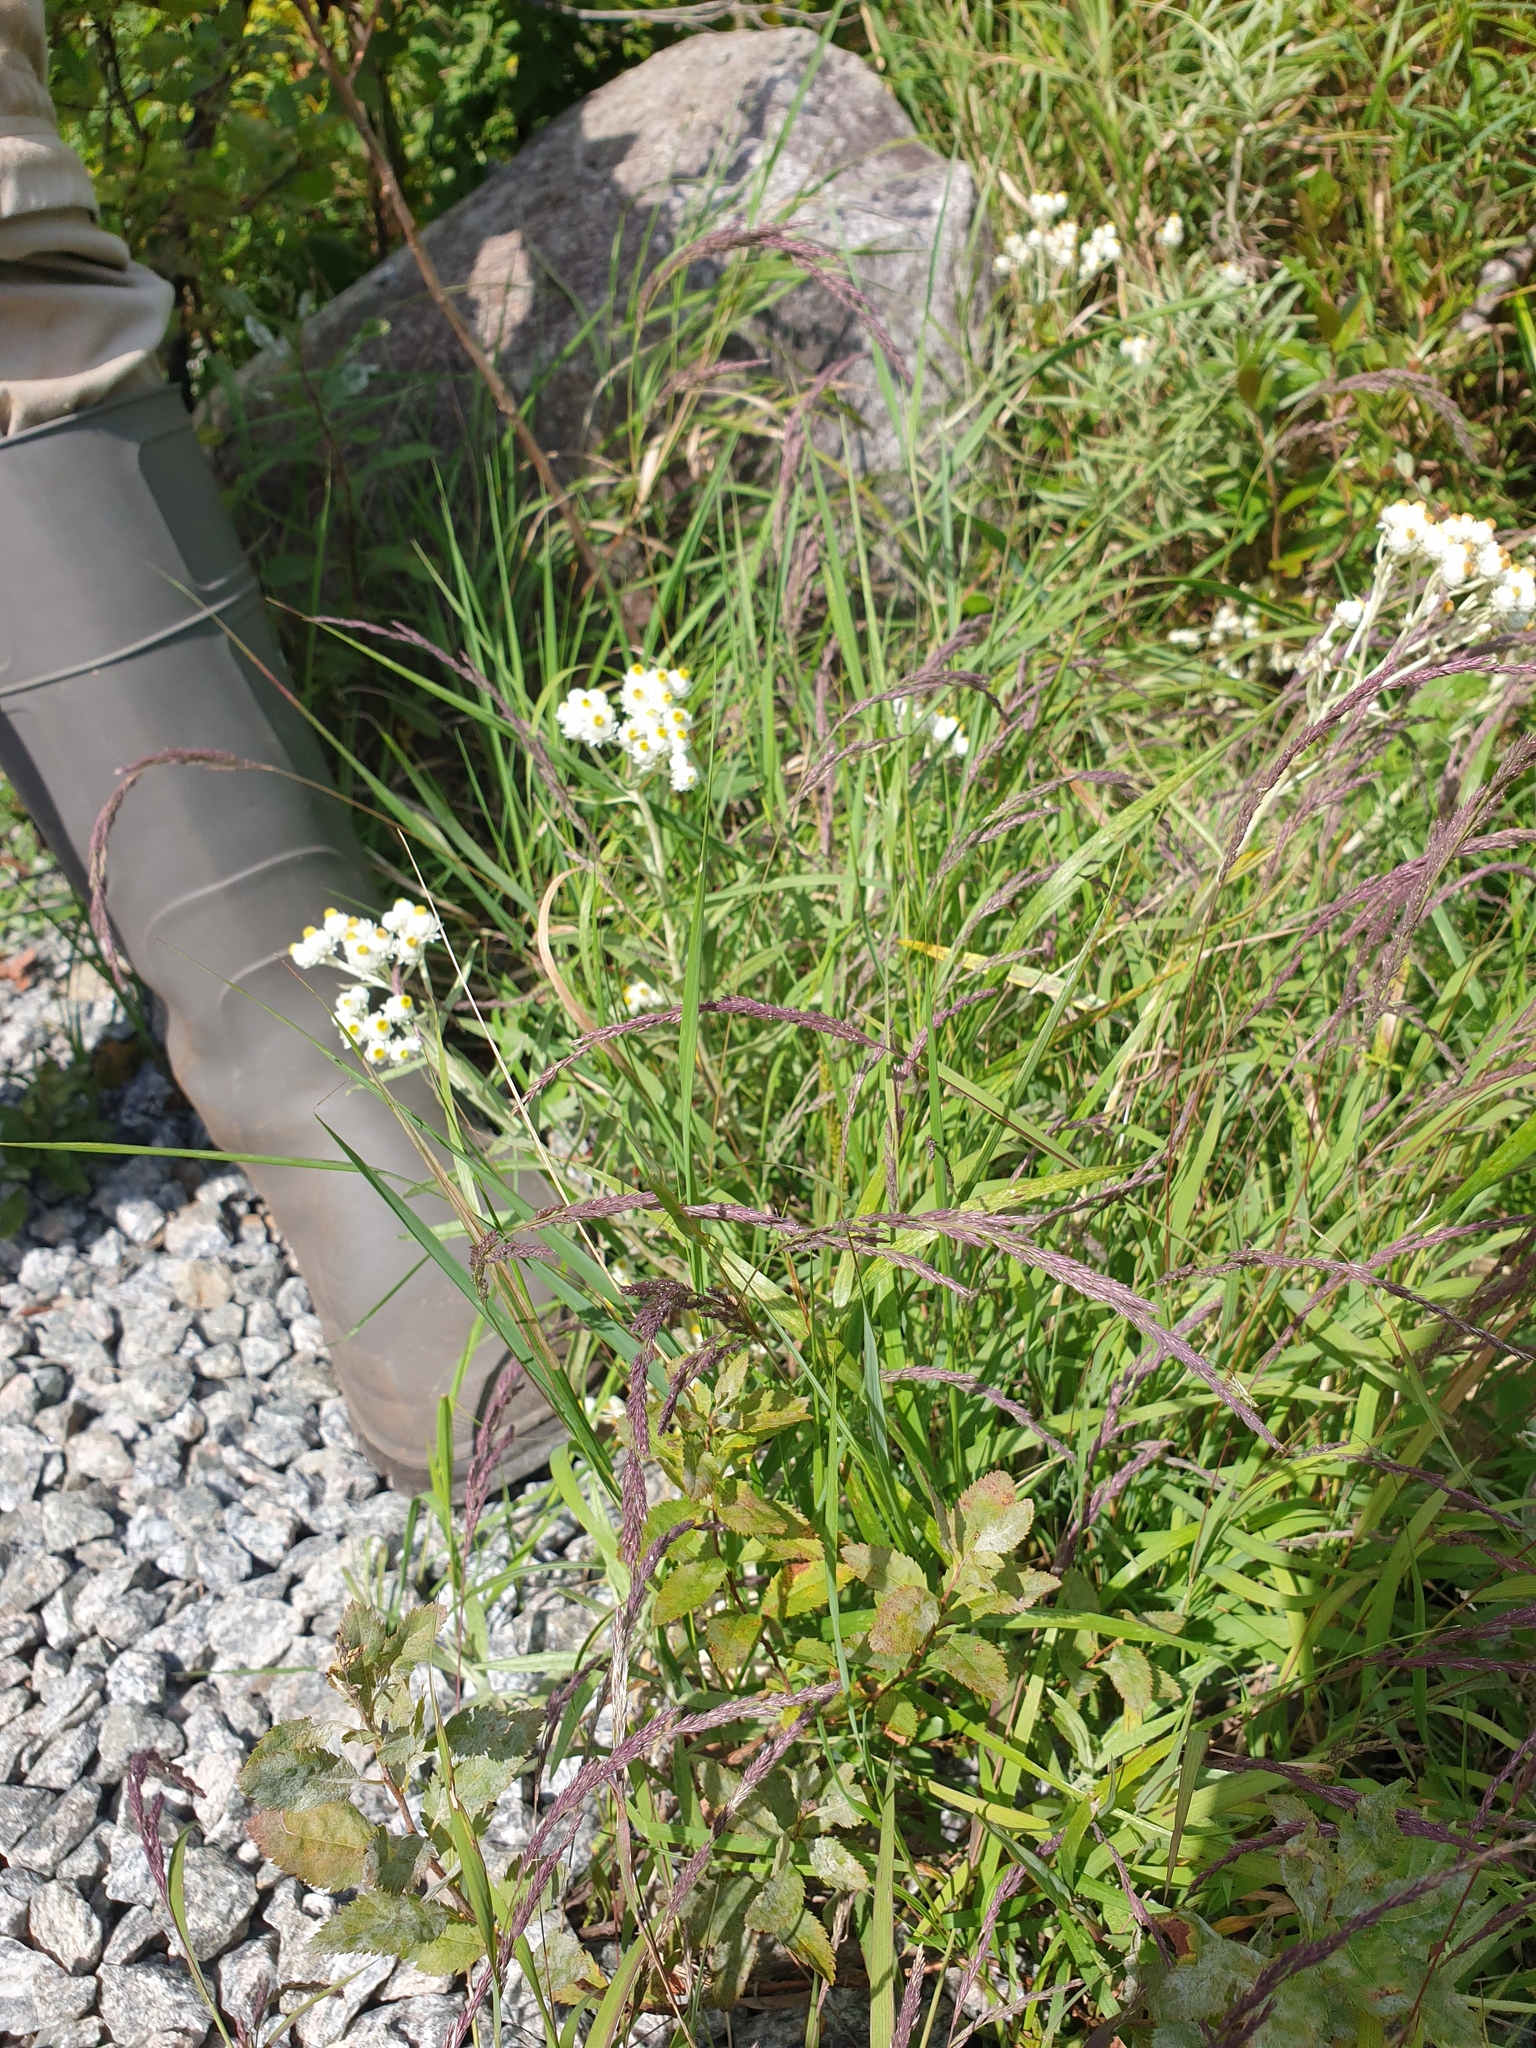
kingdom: Plantae
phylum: Tracheophyta
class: Liliopsida
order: Poales
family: Poaceae
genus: Muhlenbergia
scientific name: Muhlenbergia mexicana
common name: Mexican muhly
